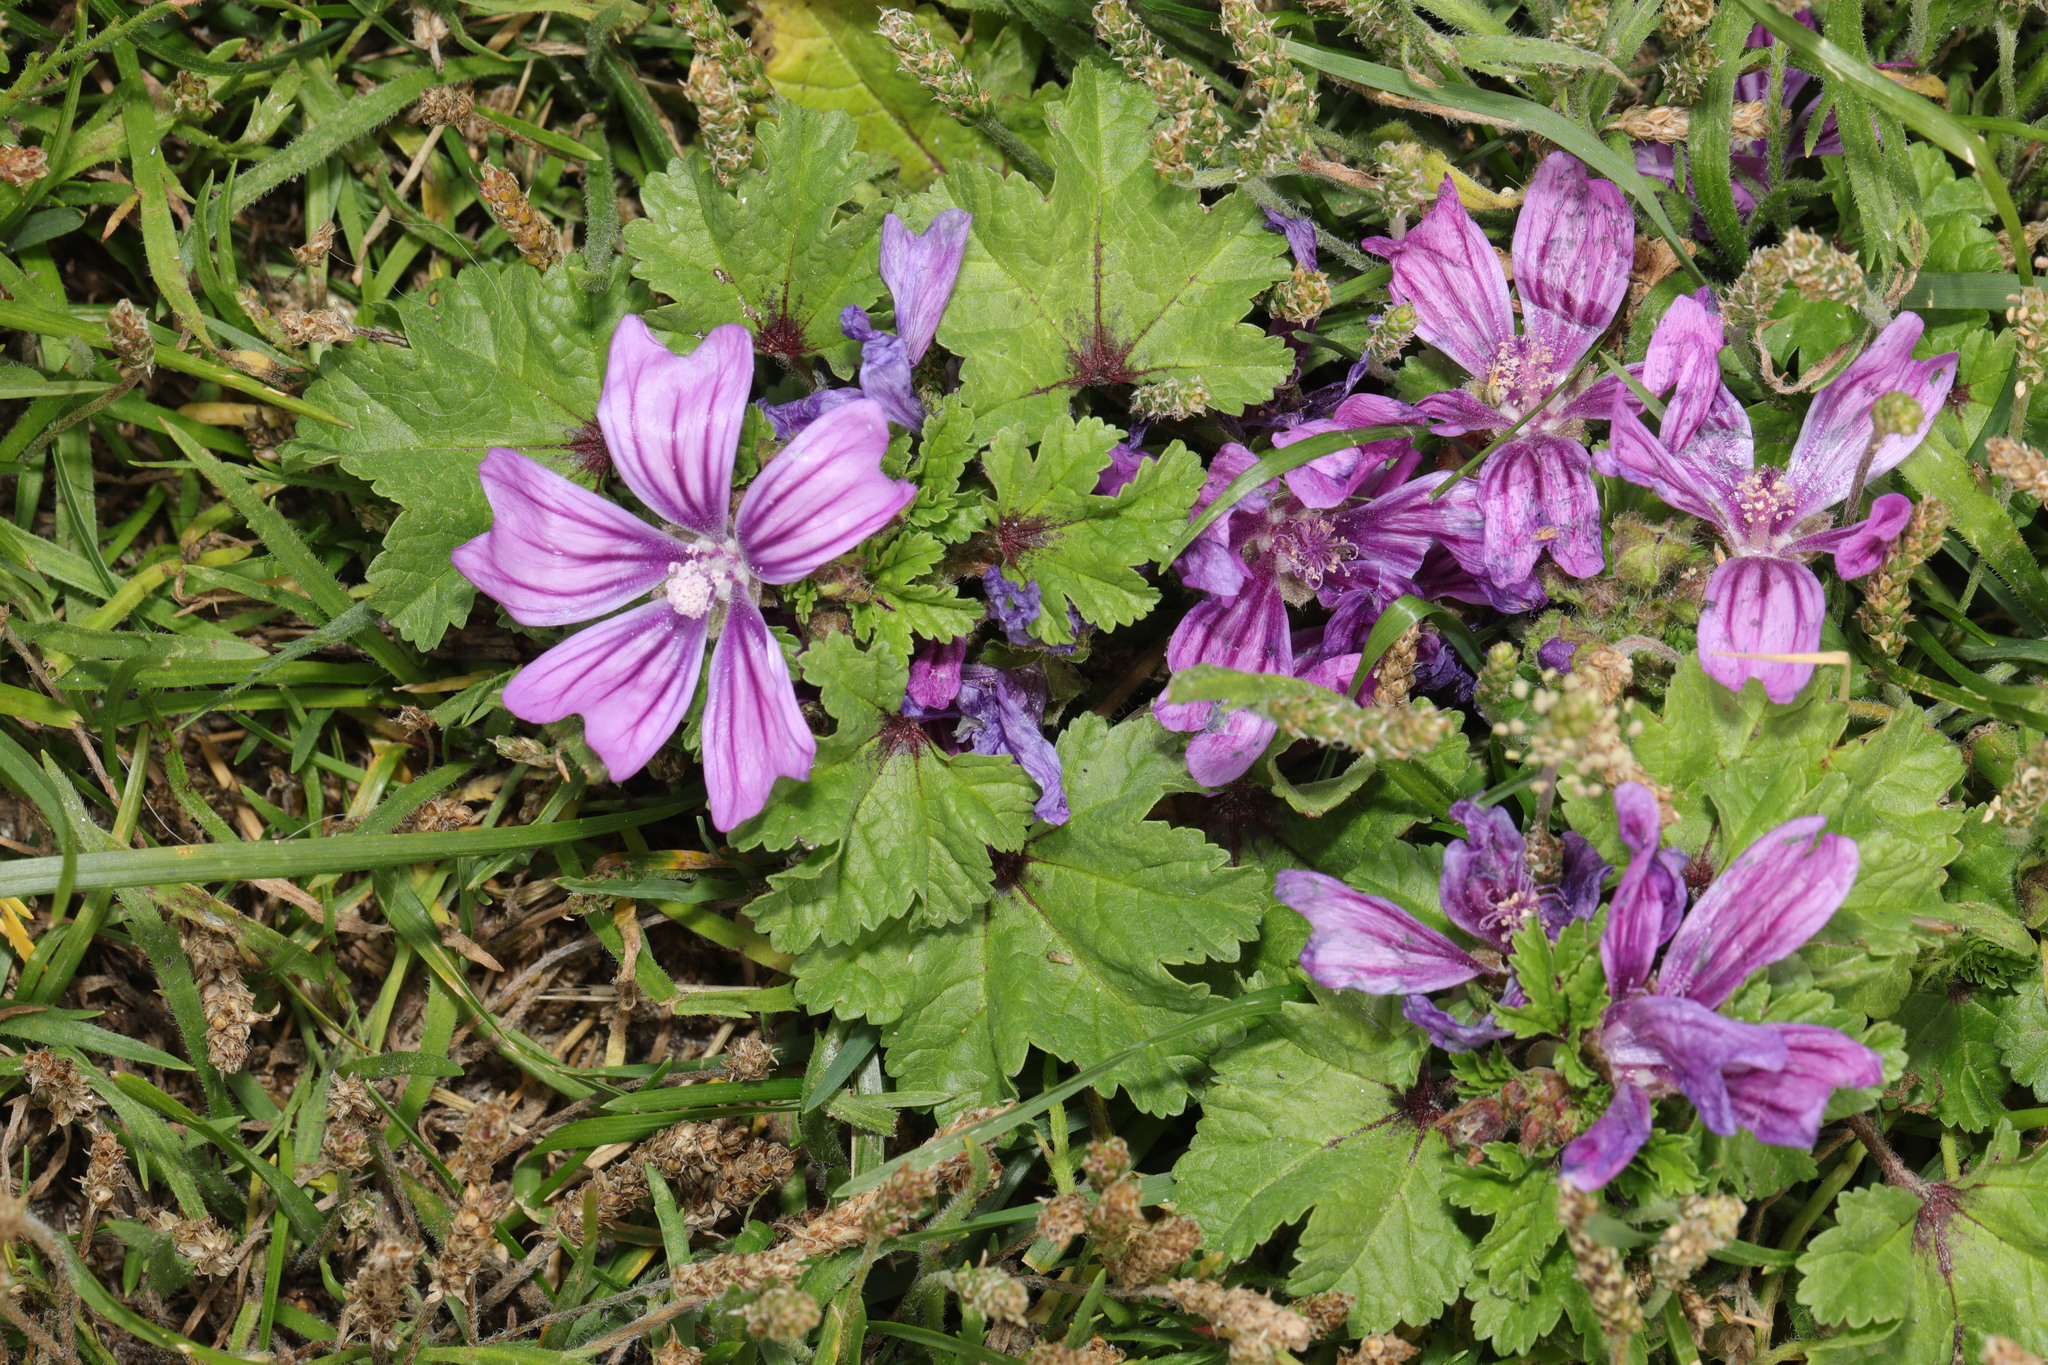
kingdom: Plantae
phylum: Tracheophyta
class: Magnoliopsida
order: Malvales
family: Malvaceae
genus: Malva
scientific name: Malva sylvestris
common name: Common mallow
